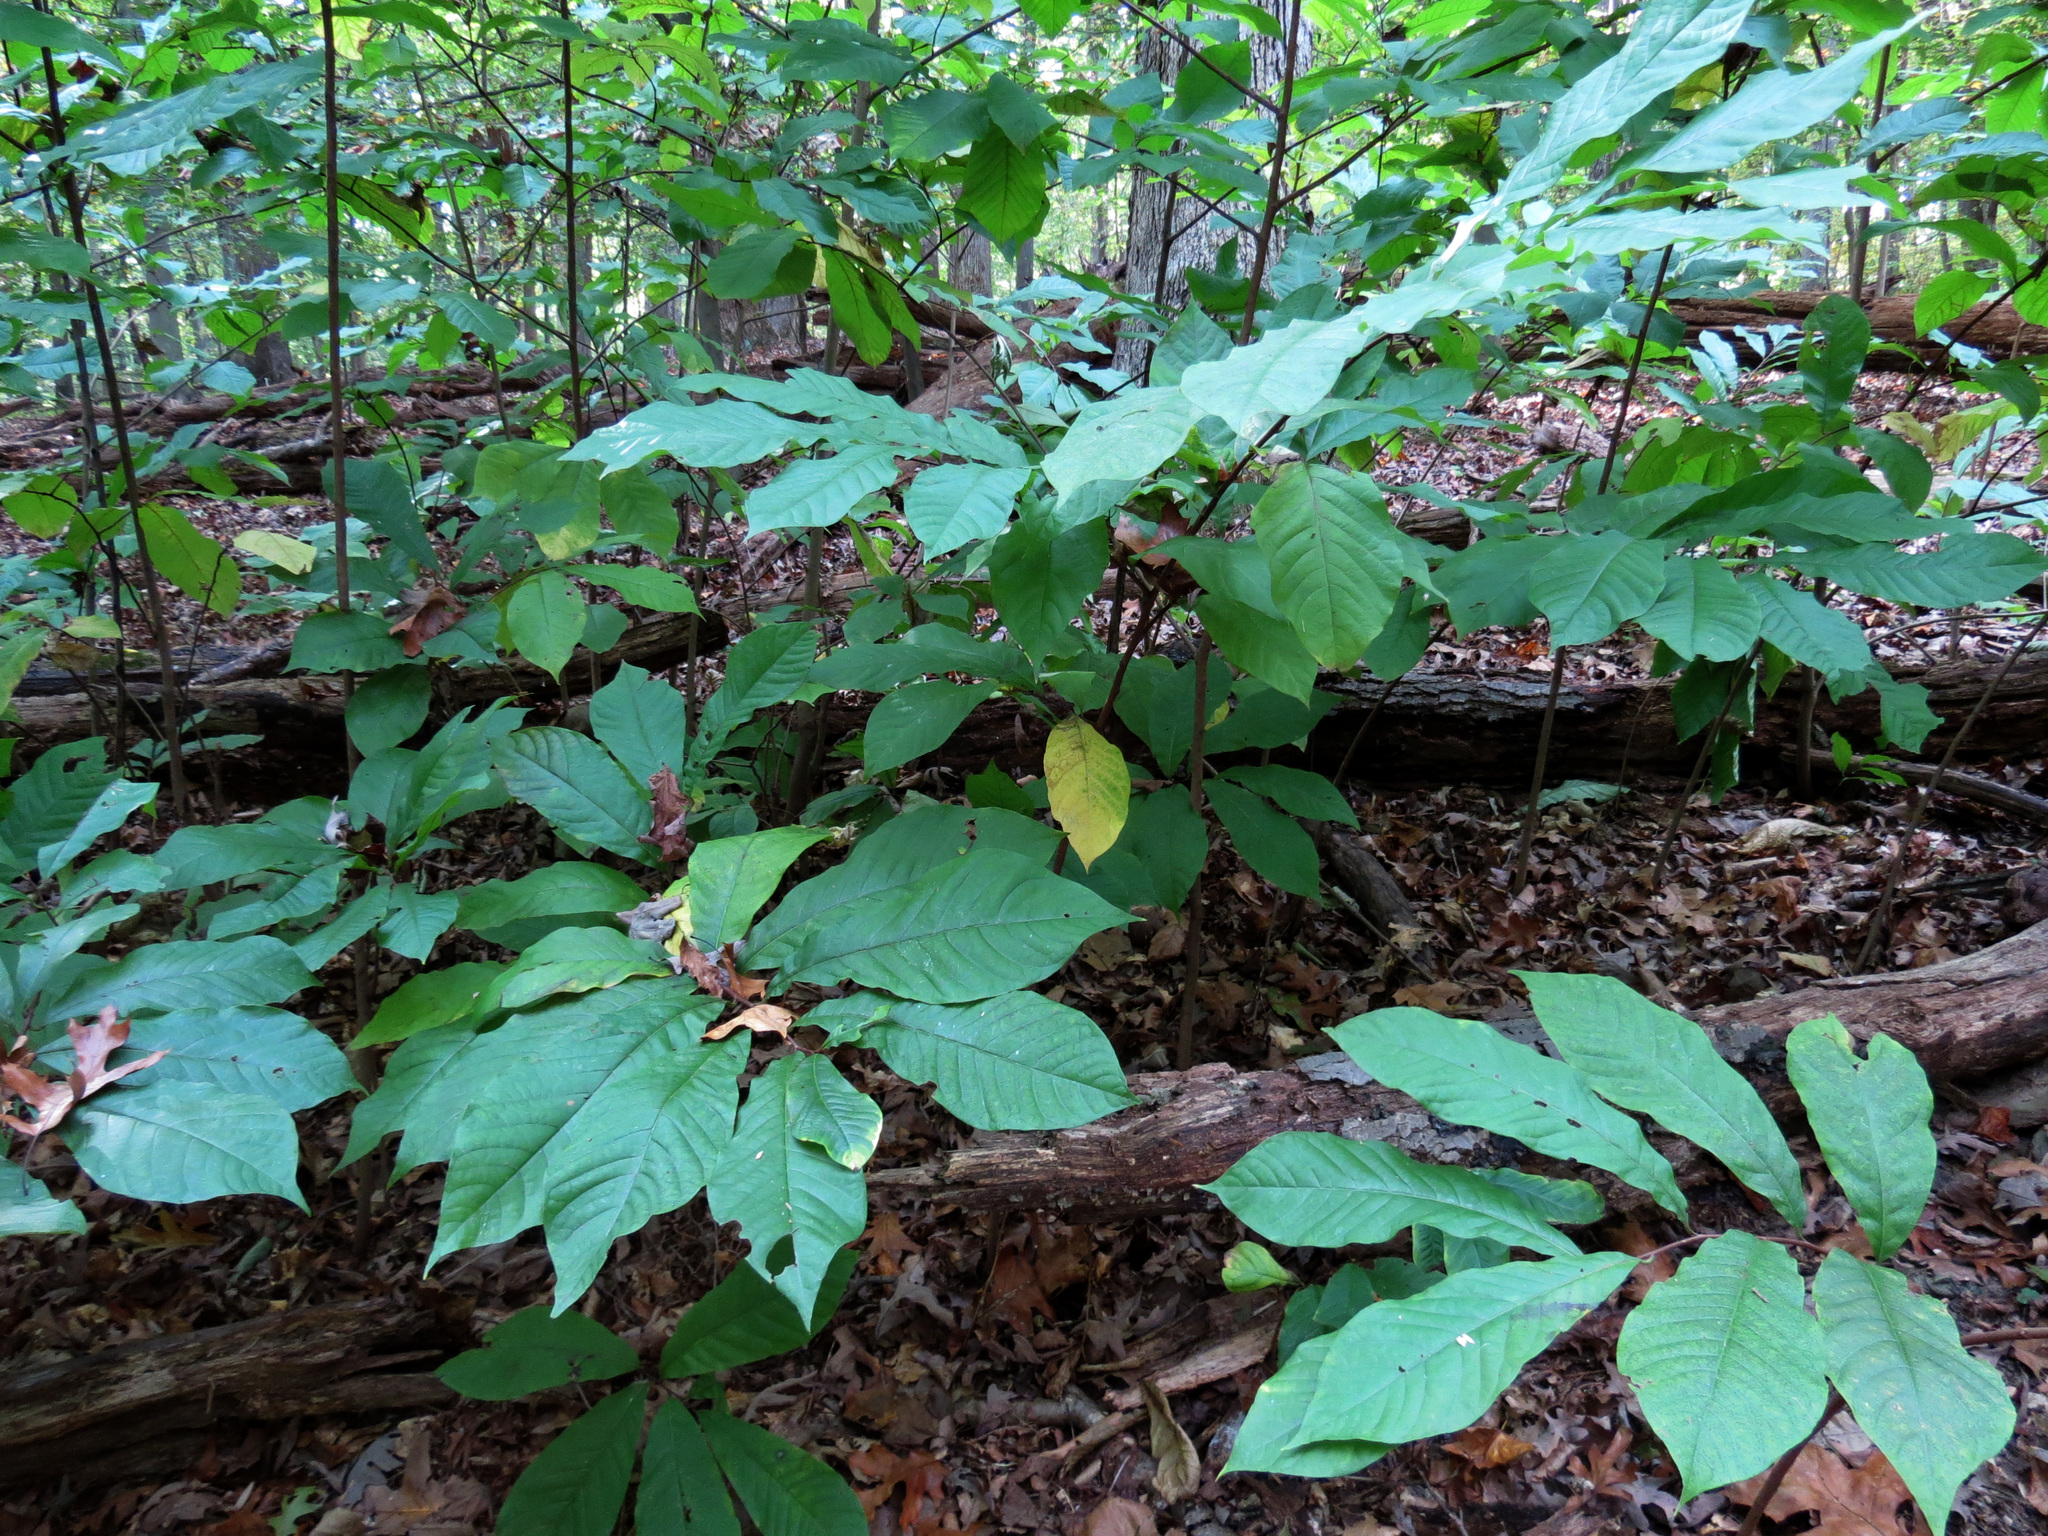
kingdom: Plantae
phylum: Tracheophyta
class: Magnoliopsida
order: Magnoliales
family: Annonaceae
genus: Asimina
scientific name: Asimina triloba
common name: Dog-banana
